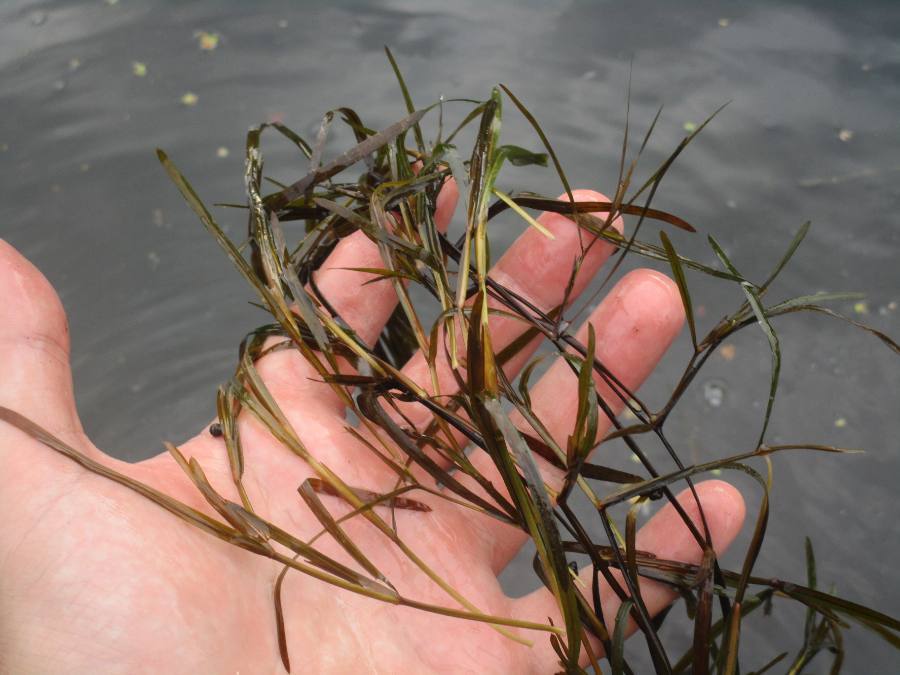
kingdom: Plantae
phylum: Tracheophyta
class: Liliopsida
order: Alismatales
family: Potamogetonaceae
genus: Potamogeton
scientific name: Potamogeton compressus
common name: Grass-wrack pondweed
